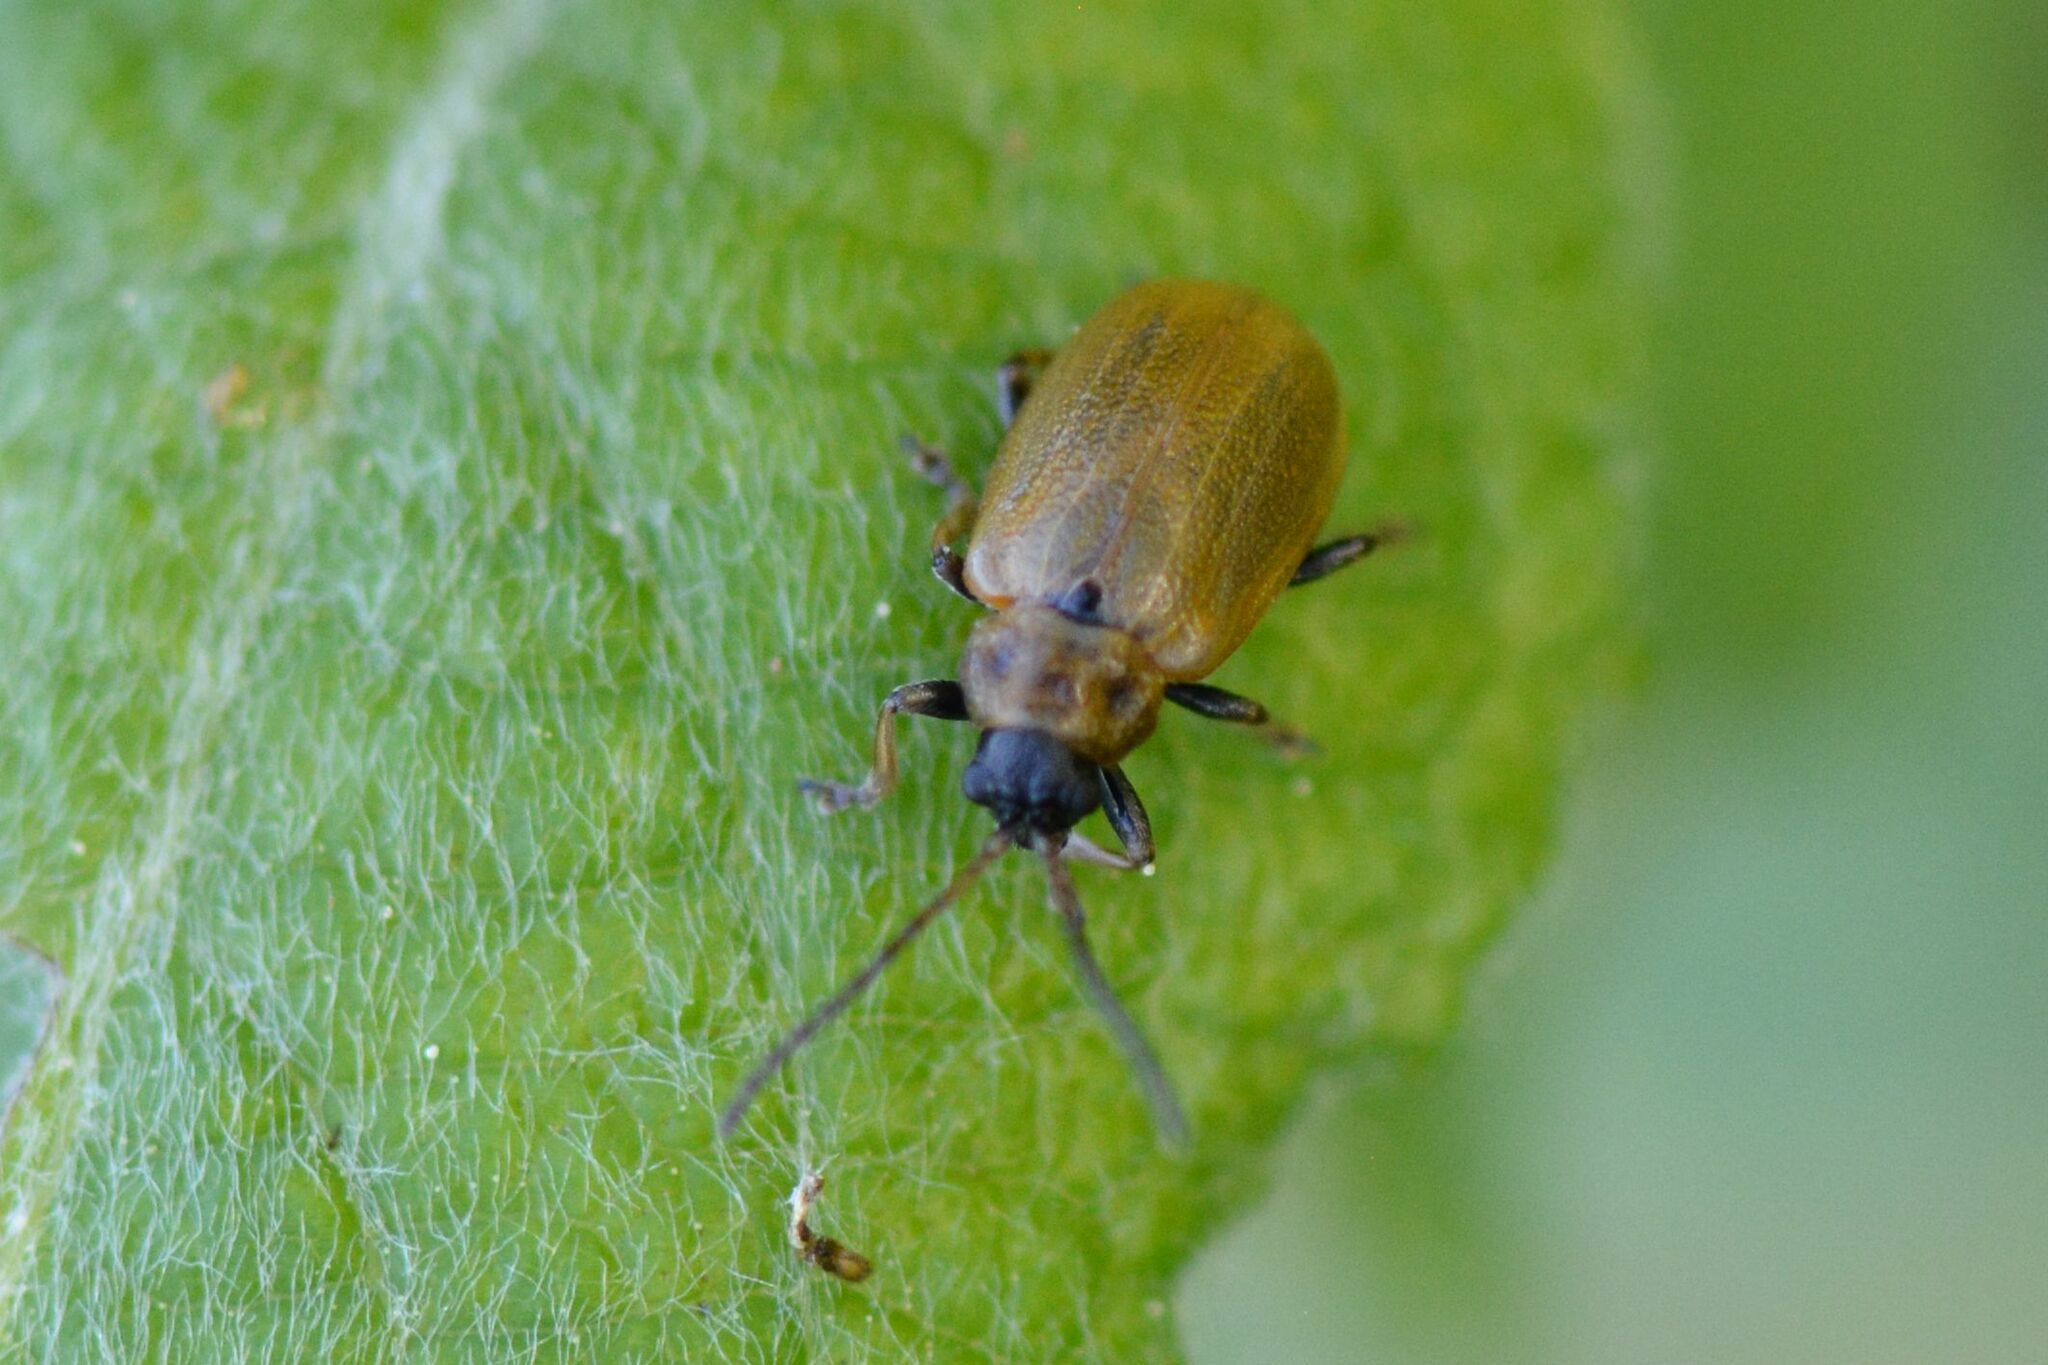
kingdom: Animalia
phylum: Arthropoda
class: Insecta
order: Coleoptera
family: Chrysomelidae
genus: Lochmaea
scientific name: Lochmaea caprea
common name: Willow leaf beetle
